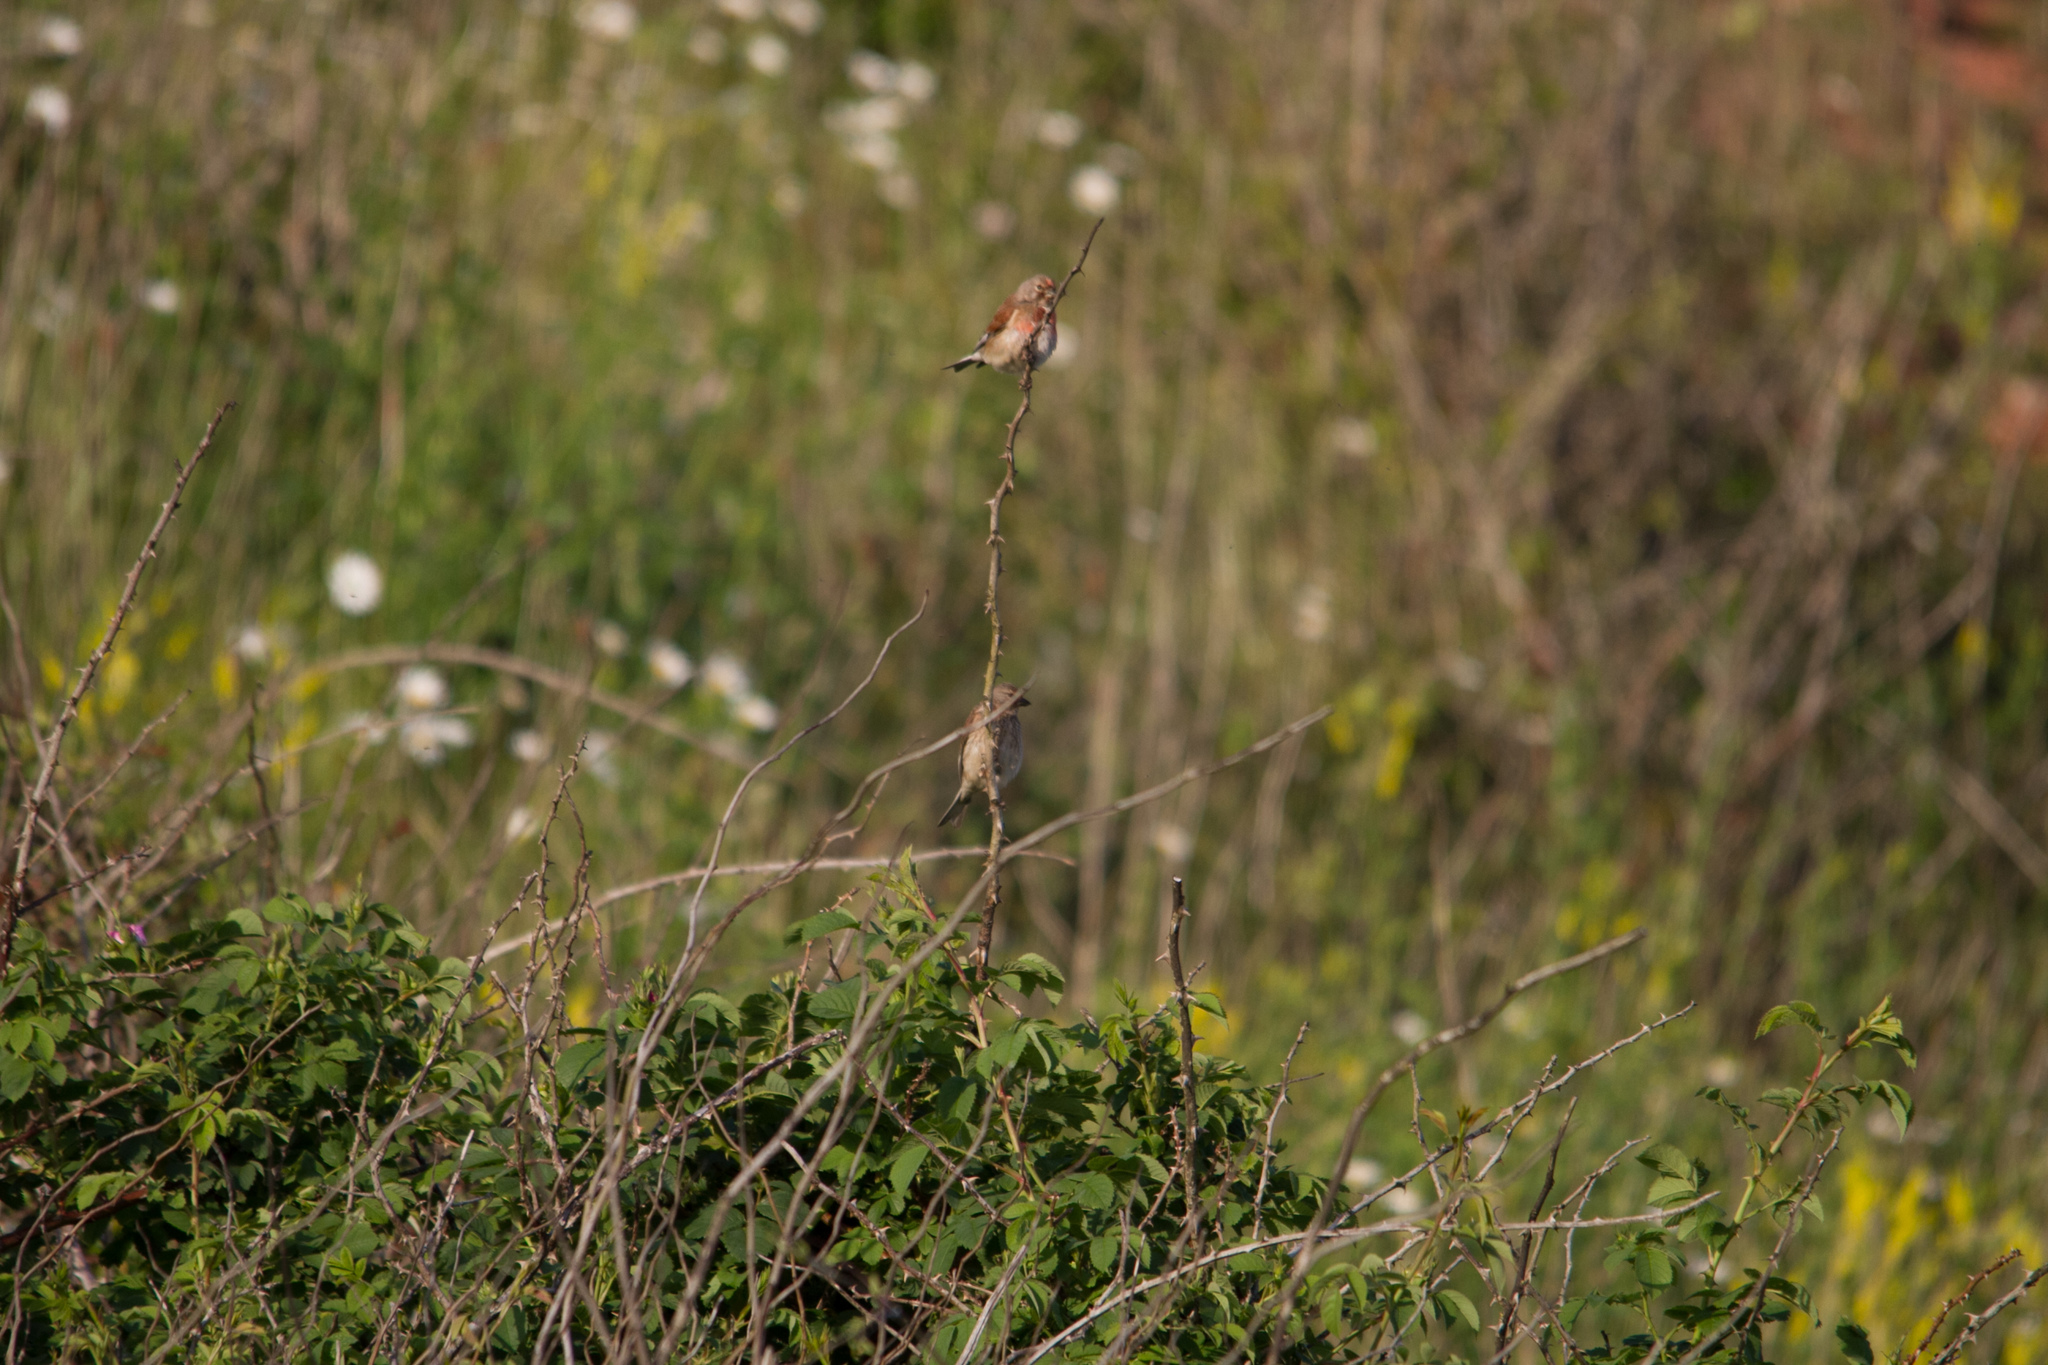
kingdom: Animalia
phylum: Chordata
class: Aves
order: Passeriformes
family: Fringillidae
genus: Linaria
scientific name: Linaria cannabina
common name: Common linnet
